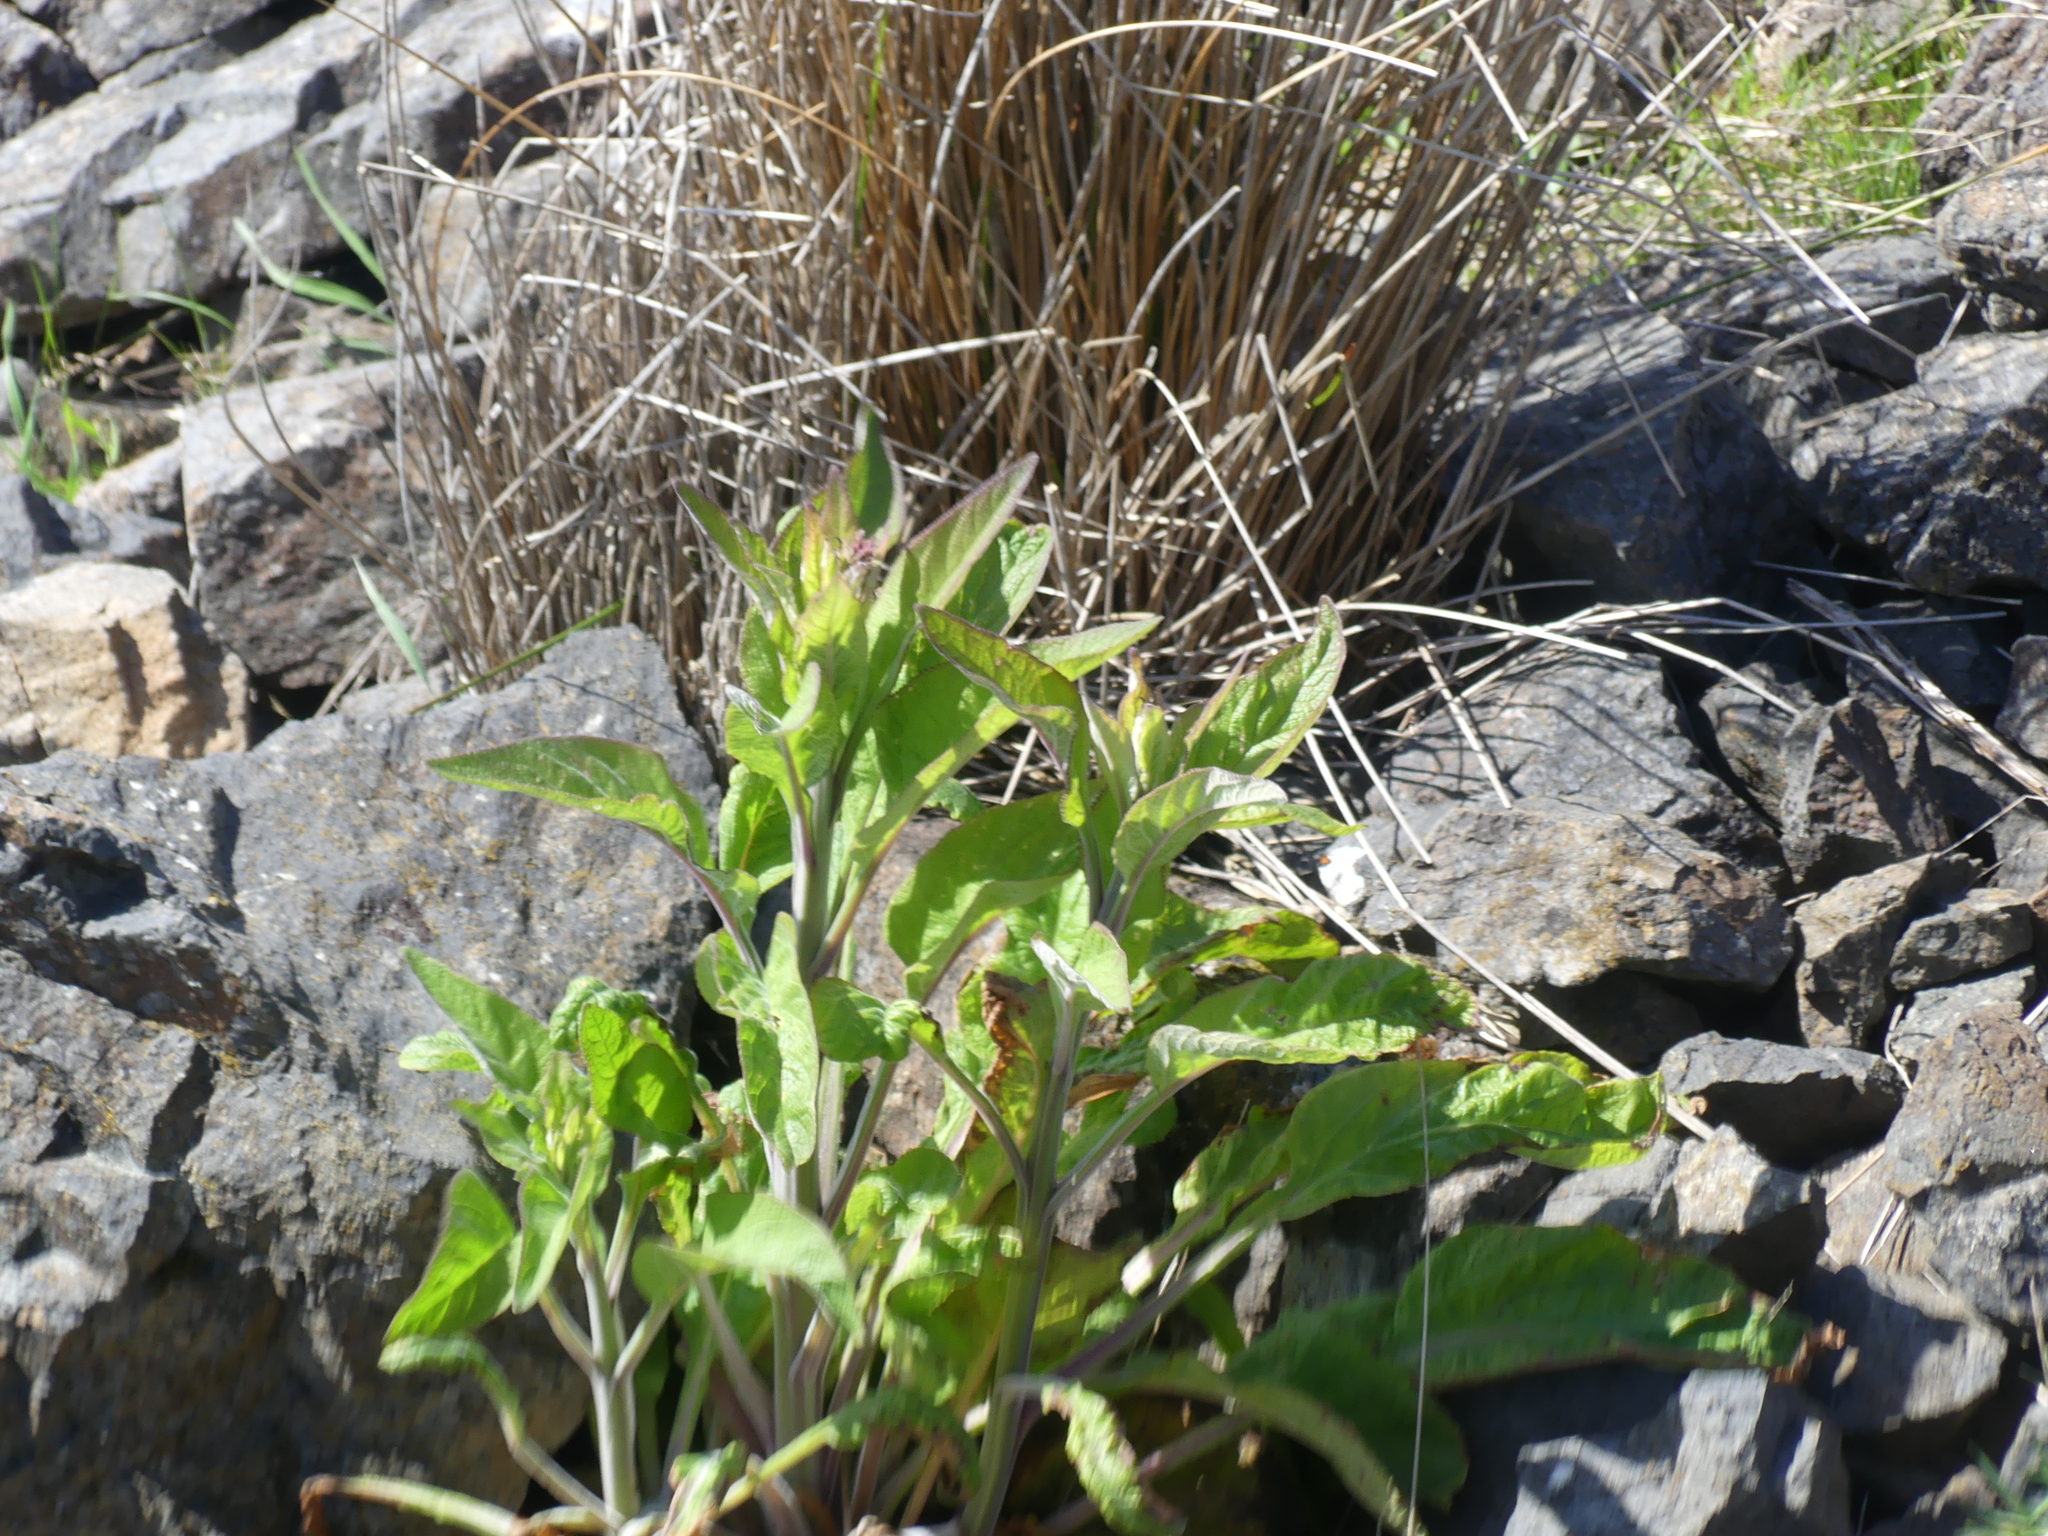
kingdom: Plantae
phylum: Tracheophyta
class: Magnoliopsida
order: Lamiales
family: Plantaginaceae
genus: Digitalis
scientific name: Digitalis purpurea
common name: Foxglove
